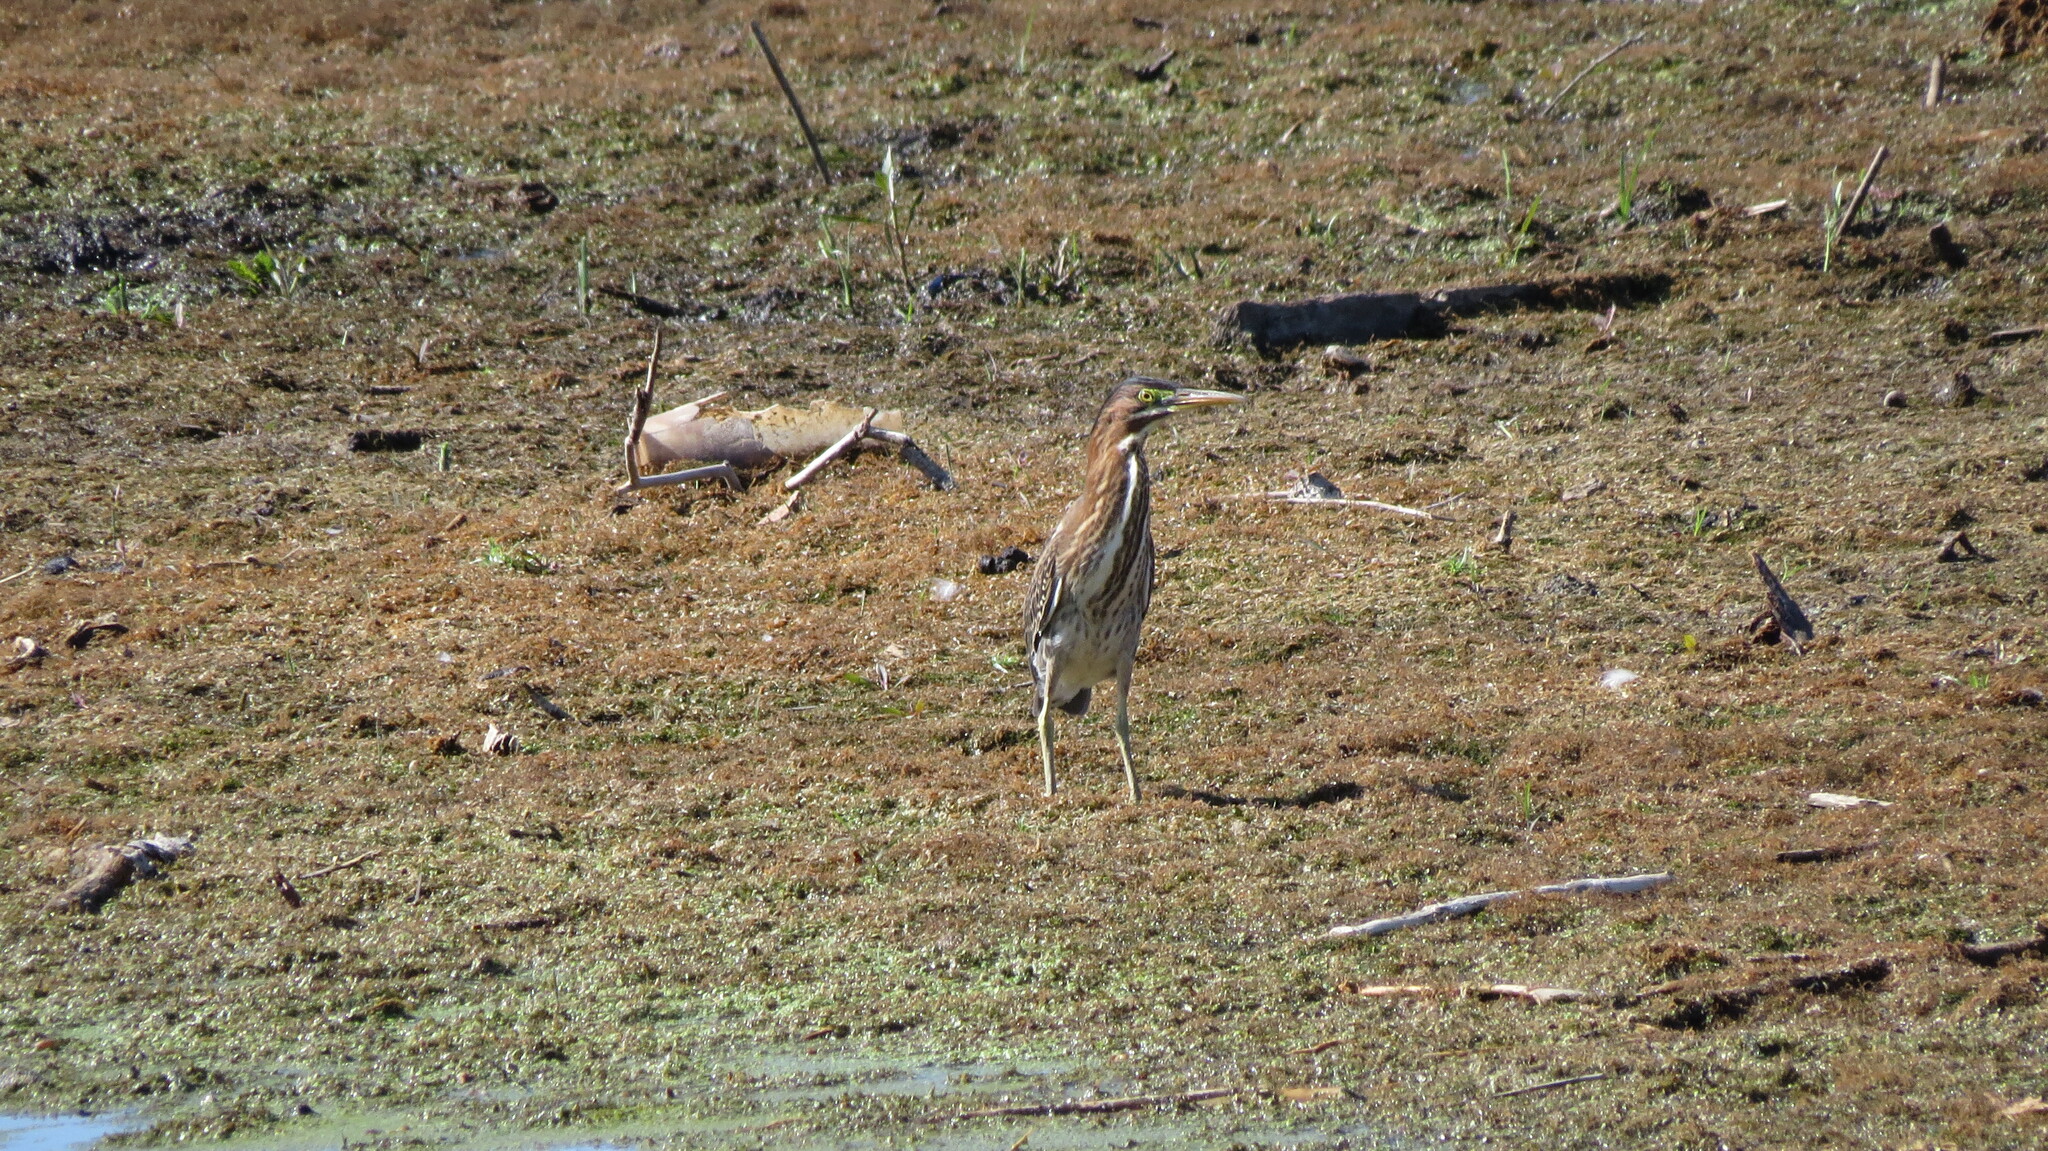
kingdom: Animalia
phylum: Chordata
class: Aves
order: Pelecaniformes
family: Ardeidae
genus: Butorides
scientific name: Butorides virescens
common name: Green heron
